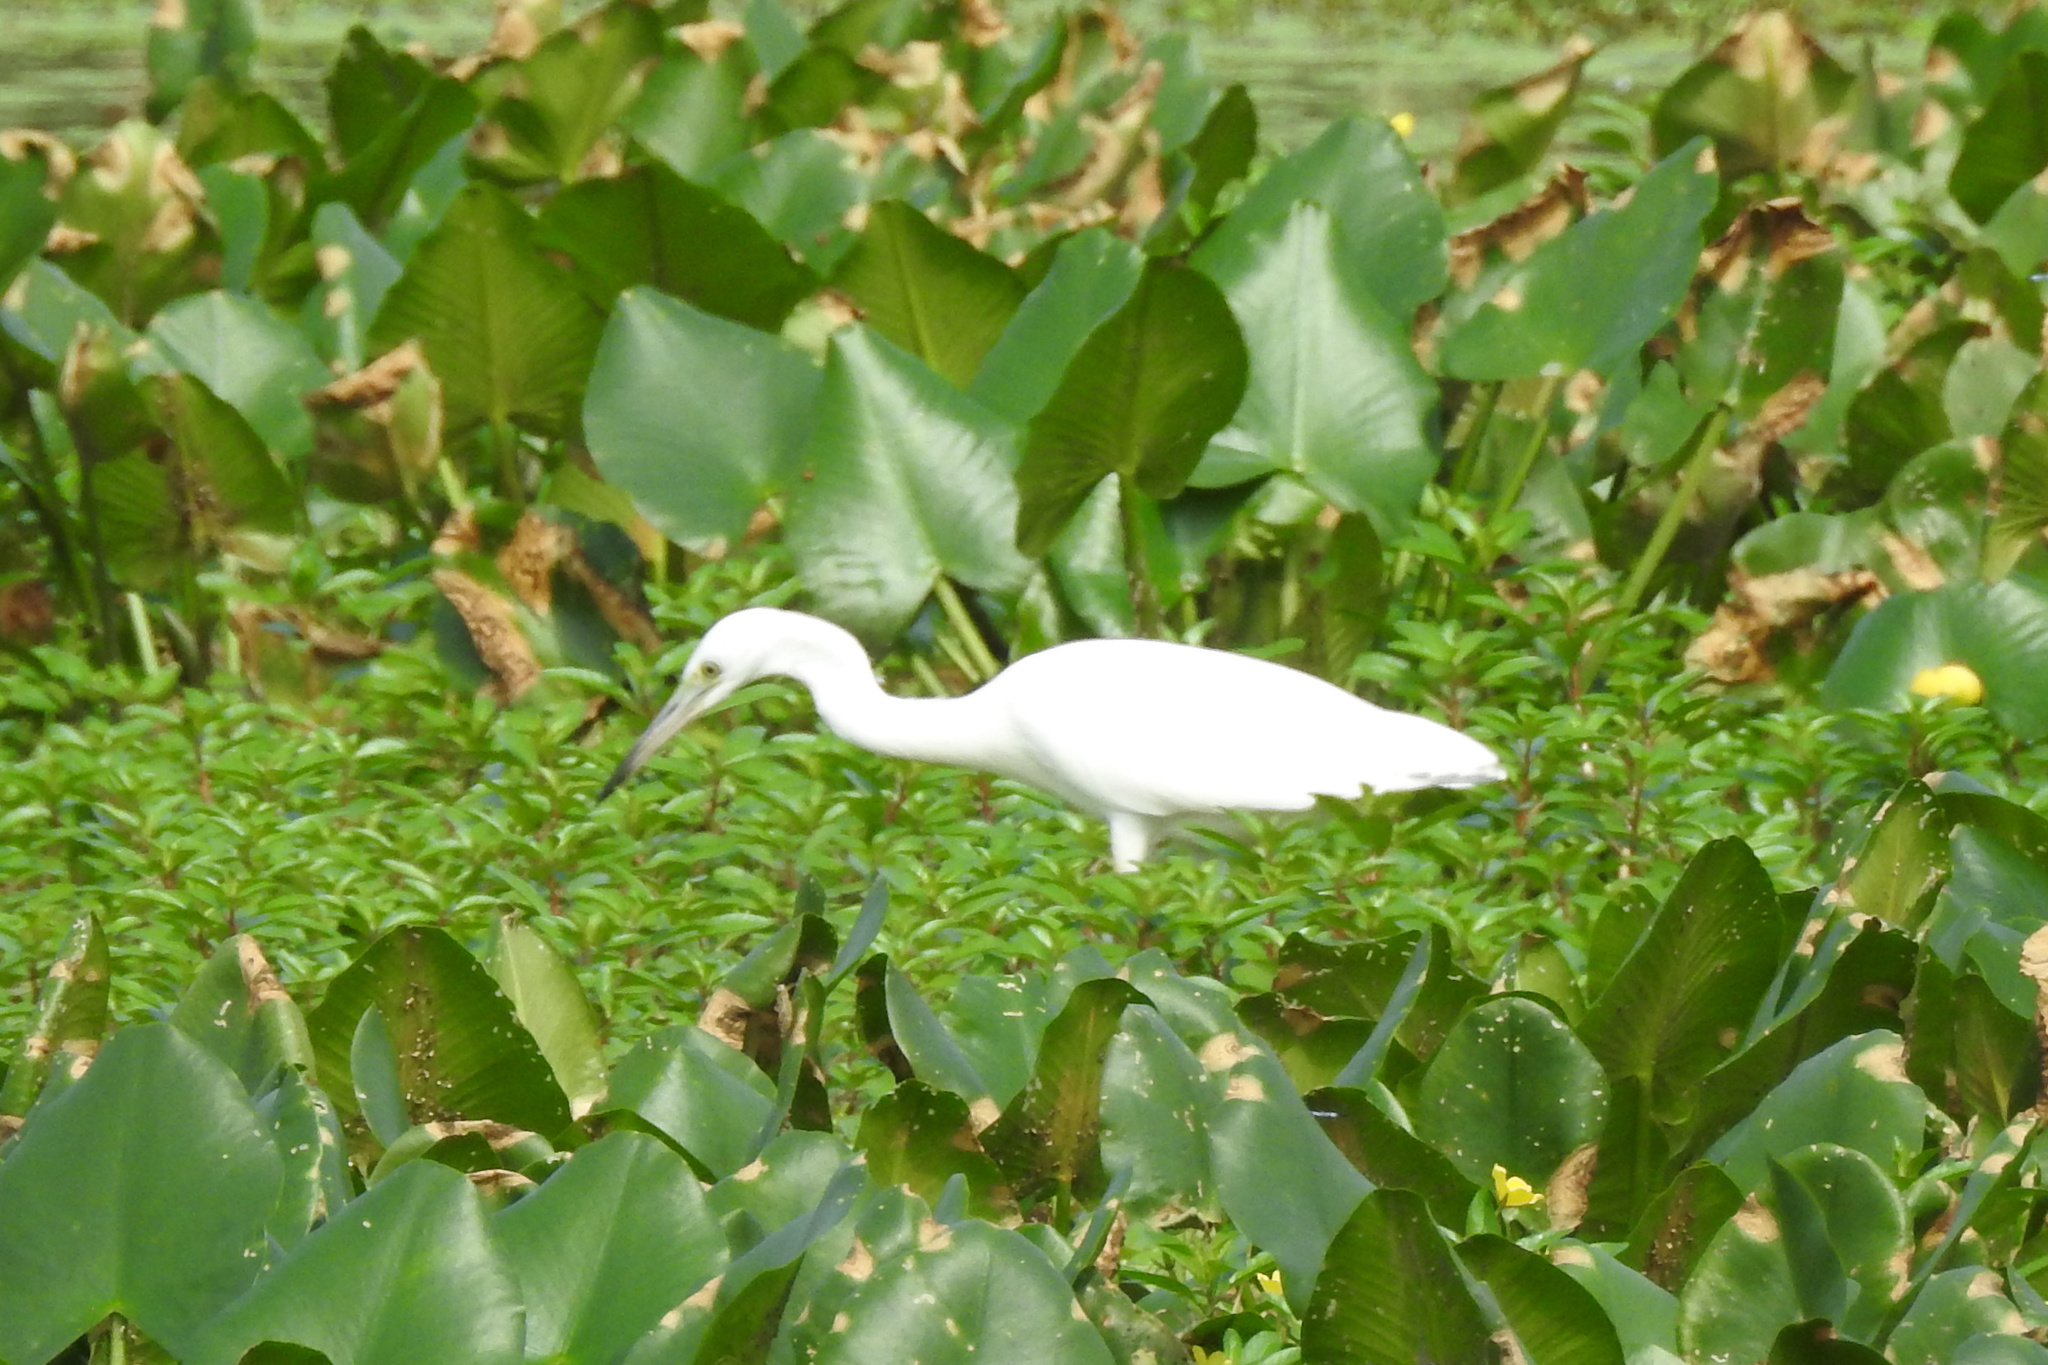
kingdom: Animalia
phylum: Chordata
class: Aves
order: Pelecaniformes
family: Ardeidae
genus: Egretta
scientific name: Egretta caerulea
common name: Little blue heron
